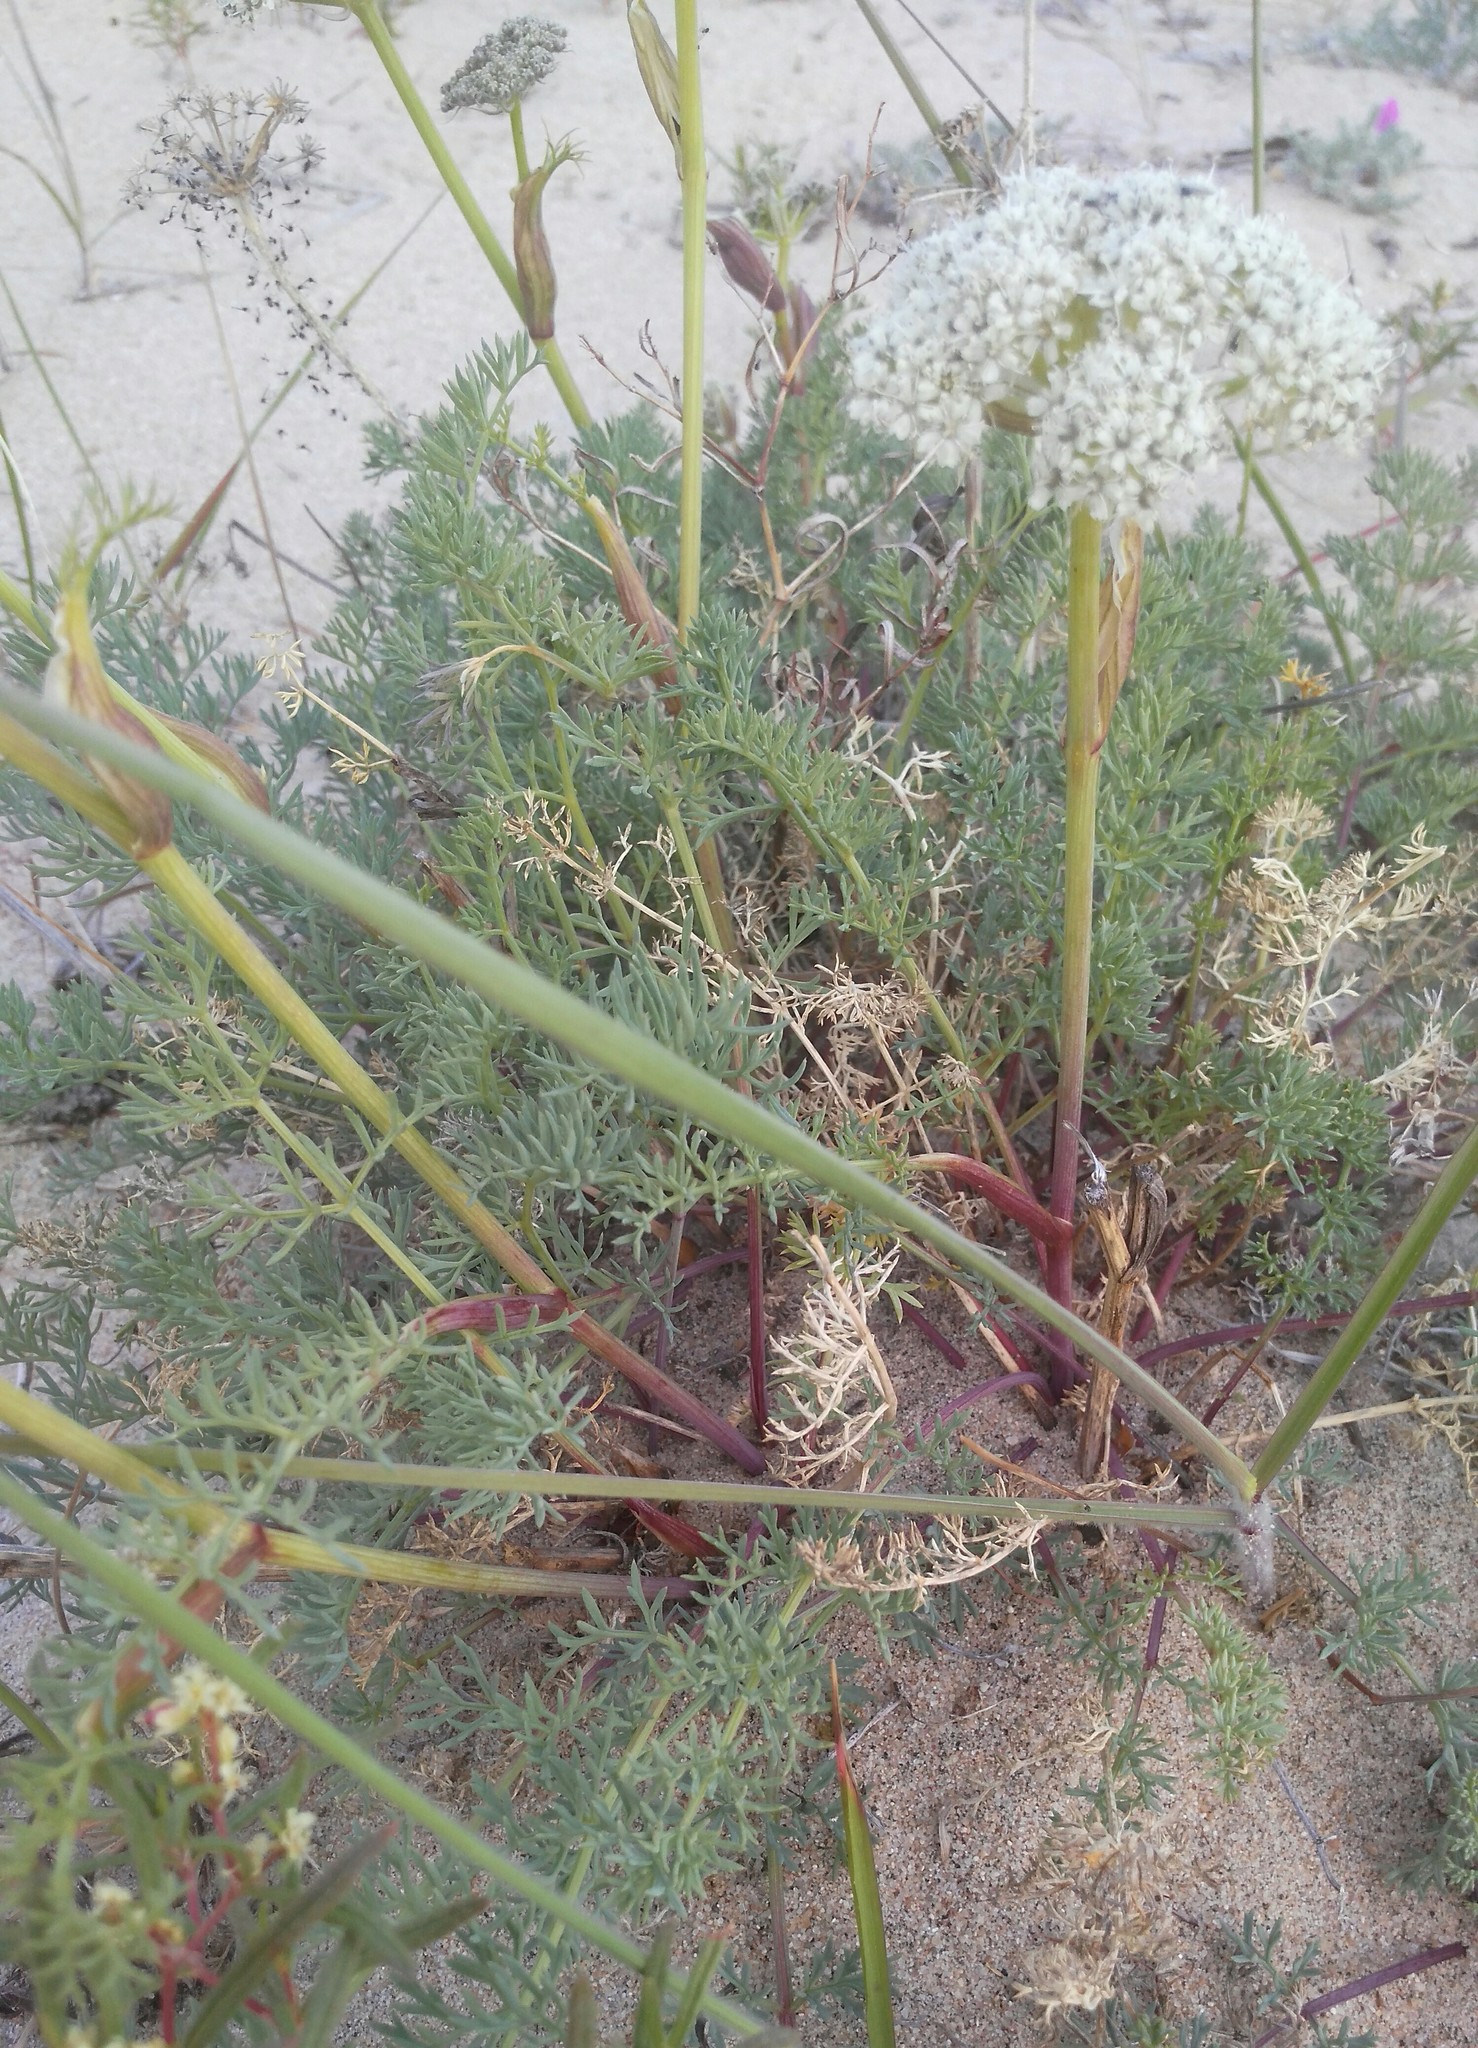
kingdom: Plantae
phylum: Tracheophyta
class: Magnoliopsida
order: Apiales
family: Apiaceae
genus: Phlojodicarpus
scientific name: Phlojodicarpus sibiricus
